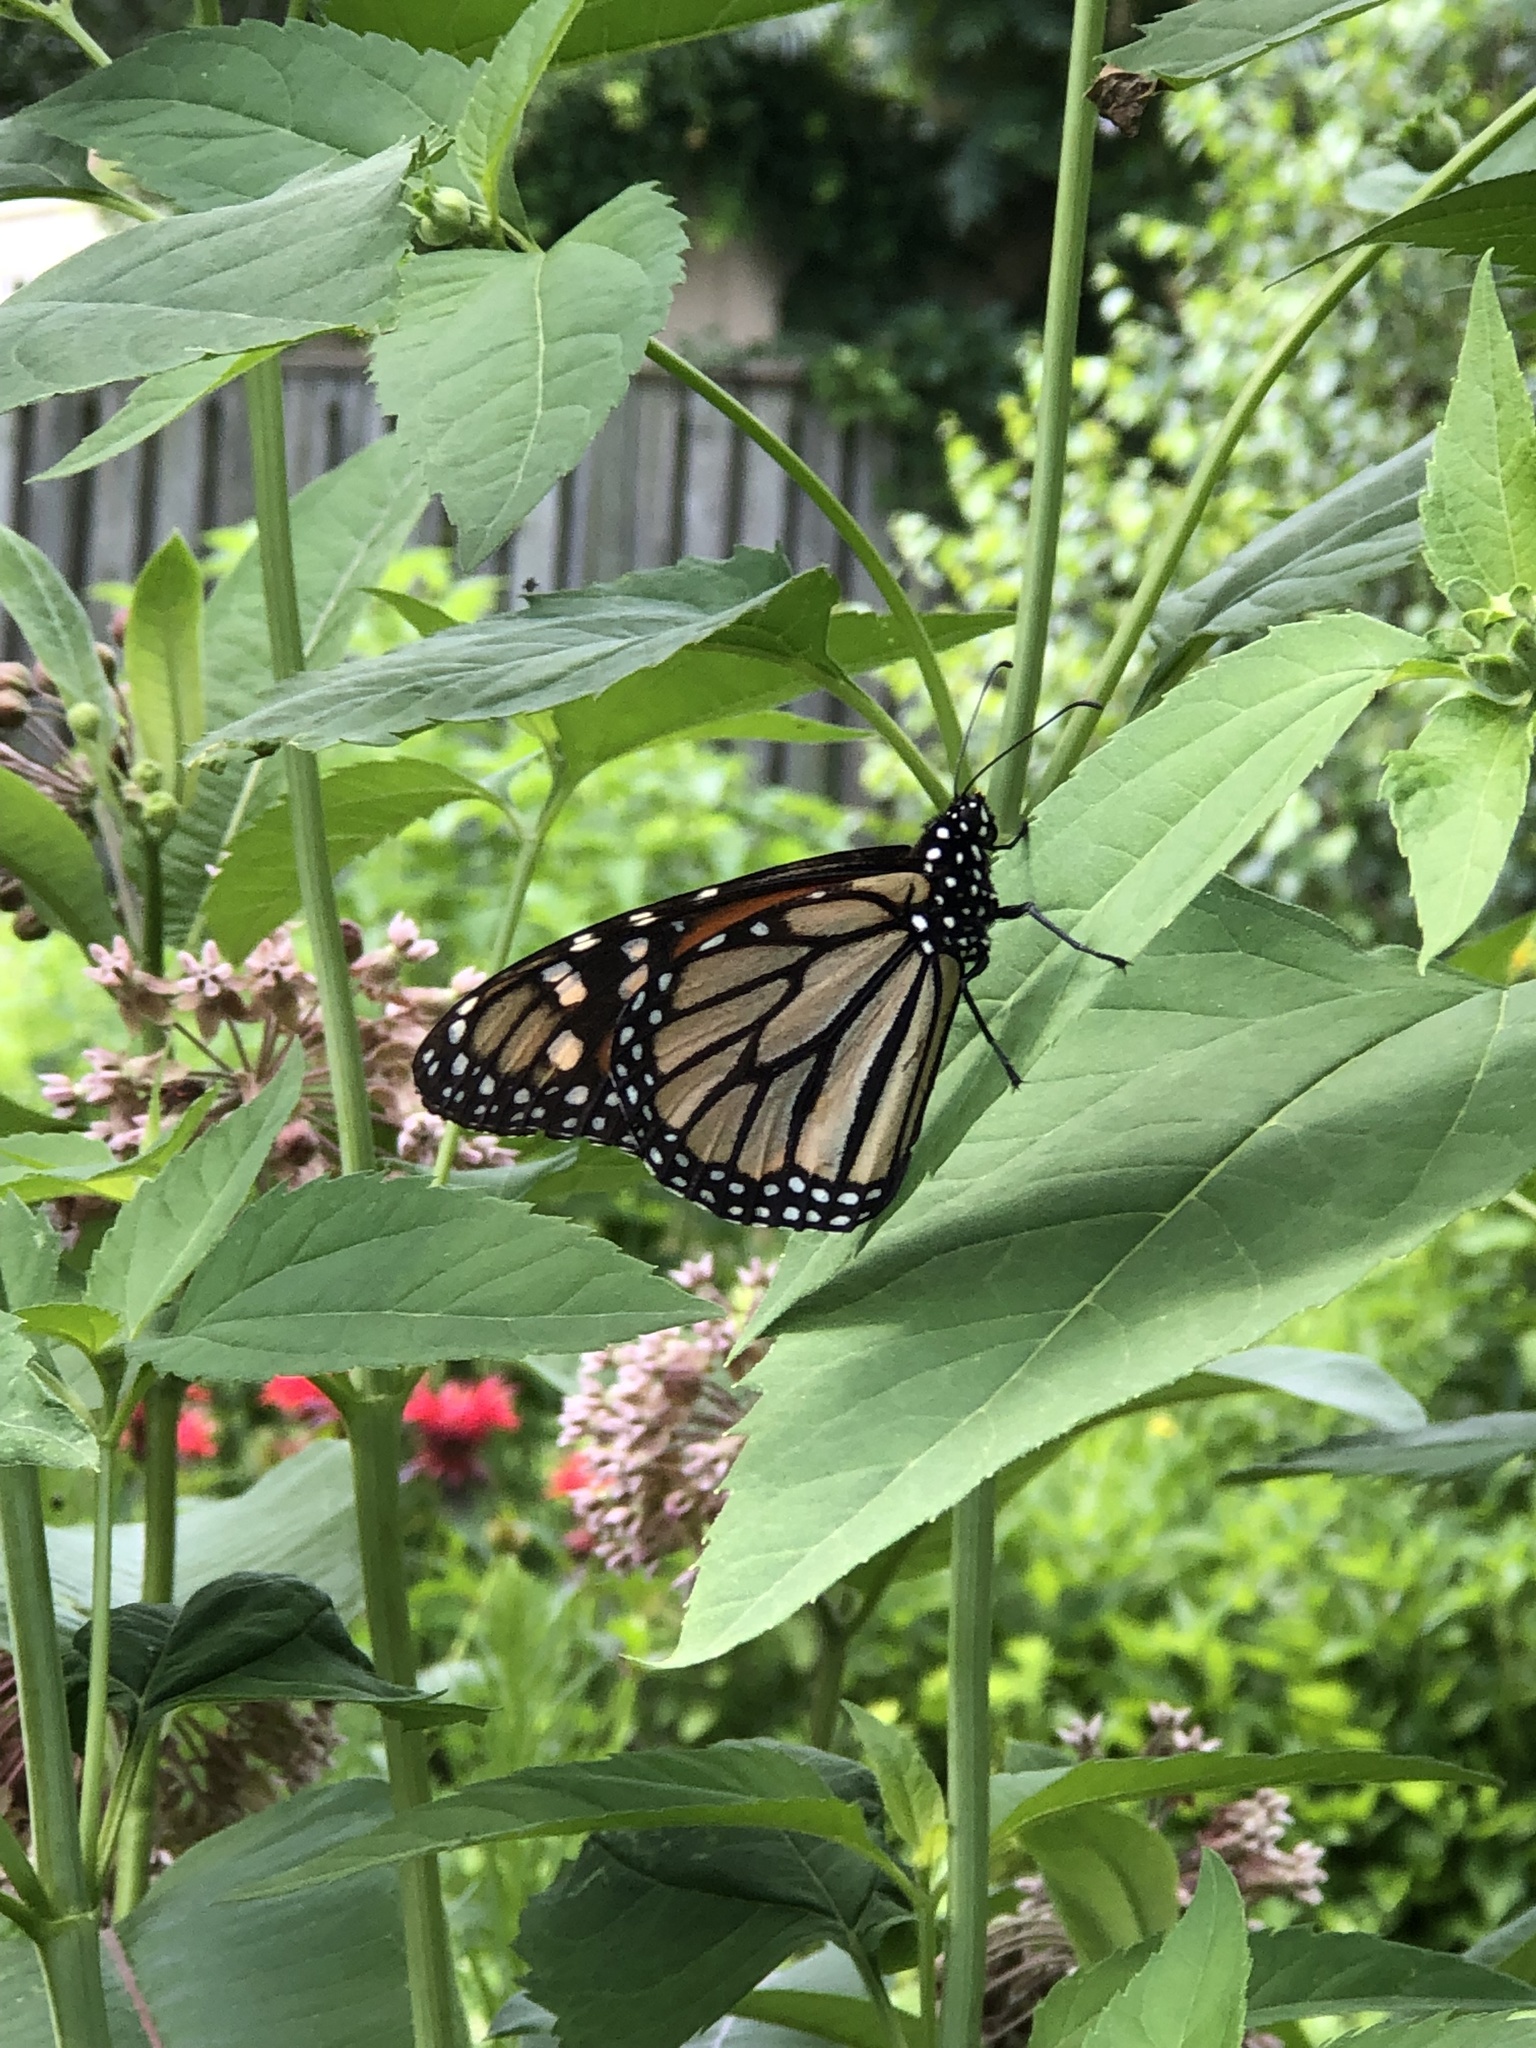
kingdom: Animalia
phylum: Arthropoda
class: Insecta
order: Lepidoptera
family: Nymphalidae
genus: Danaus
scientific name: Danaus plexippus
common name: Monarch
